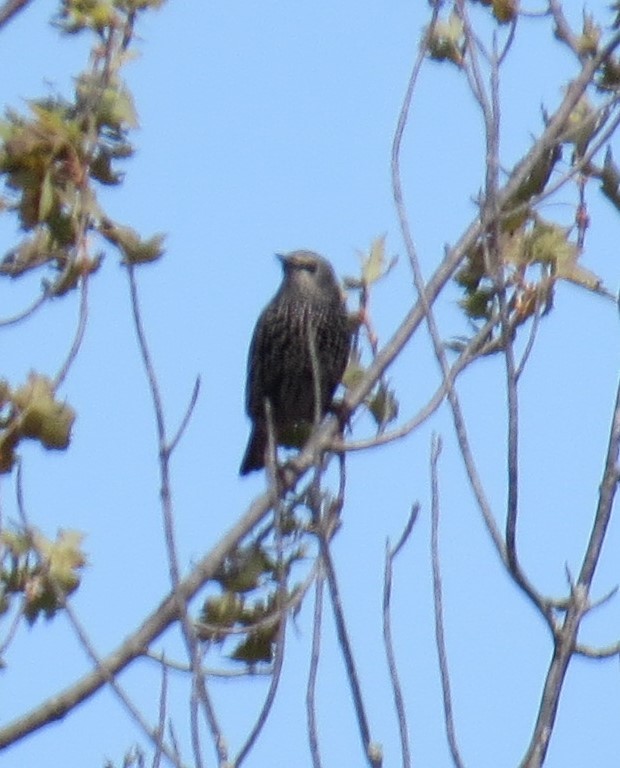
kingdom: Animalia
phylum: Chordata
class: Aves
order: Passeriformes
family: Sturnidae
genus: Sturnus
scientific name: Sturnus vulgaris
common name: Common starling
